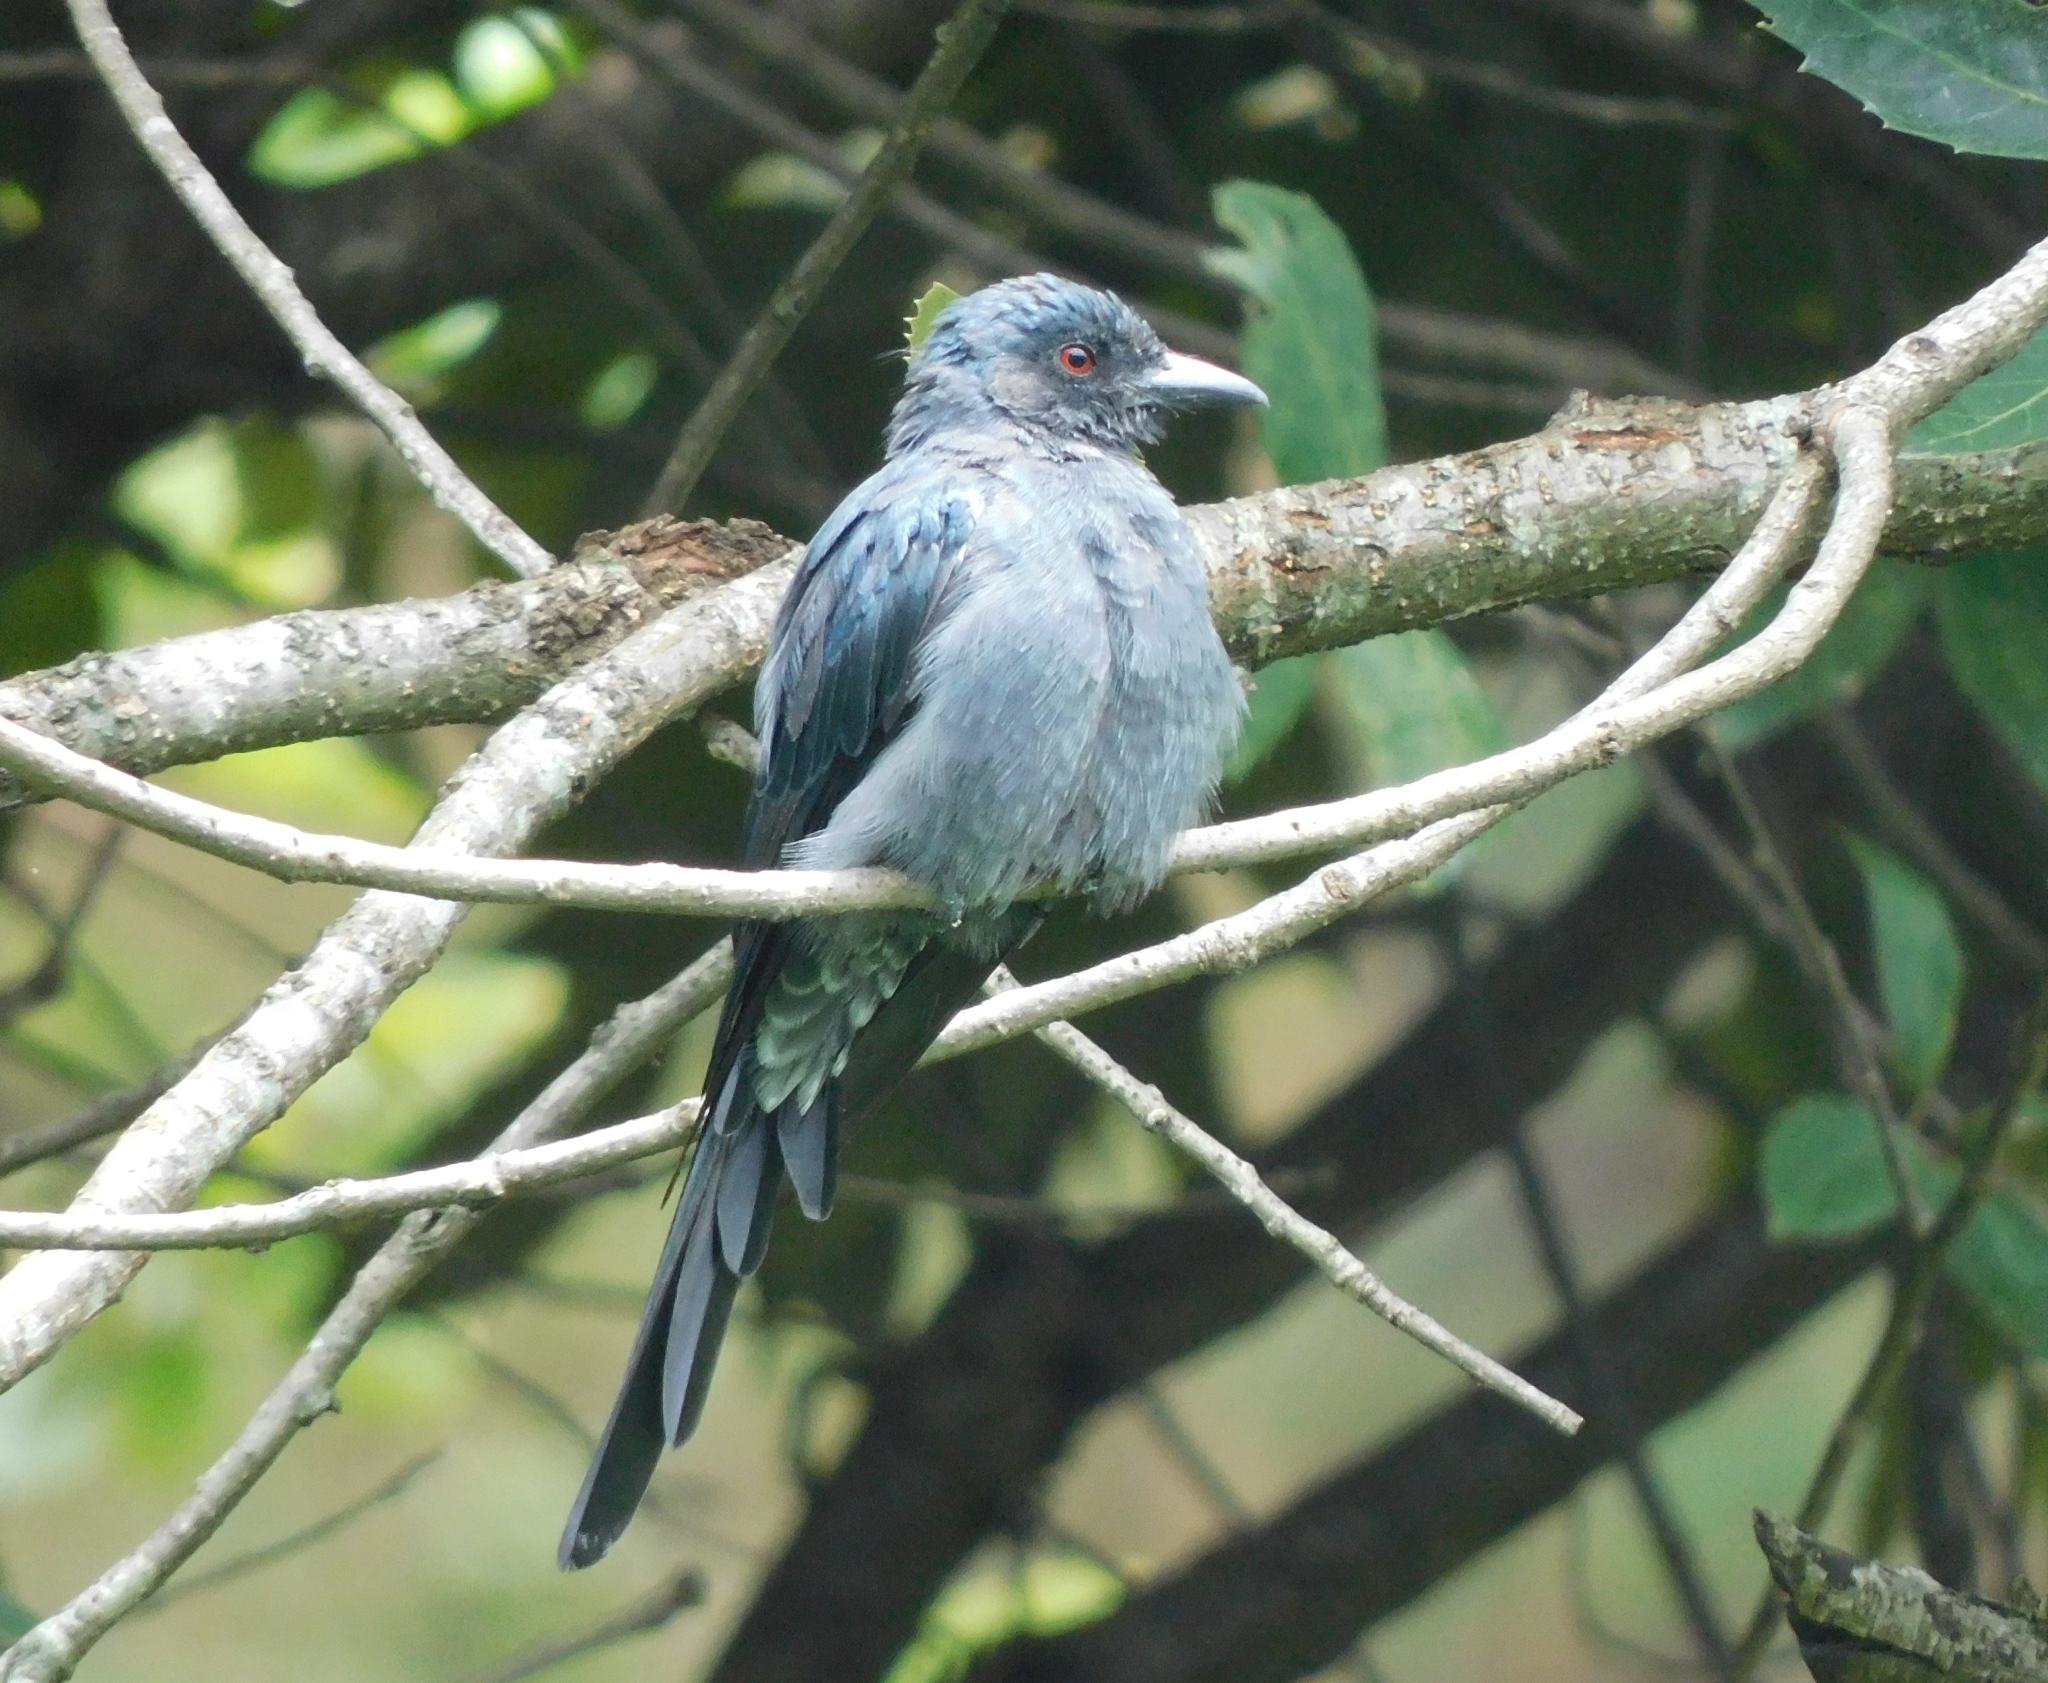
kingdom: Animalia
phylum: Chordata
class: Aves
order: Passeriformes
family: Dicruridae
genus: Dicrurus
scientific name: Dicrurus leucophaeus
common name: Ashy drongo
